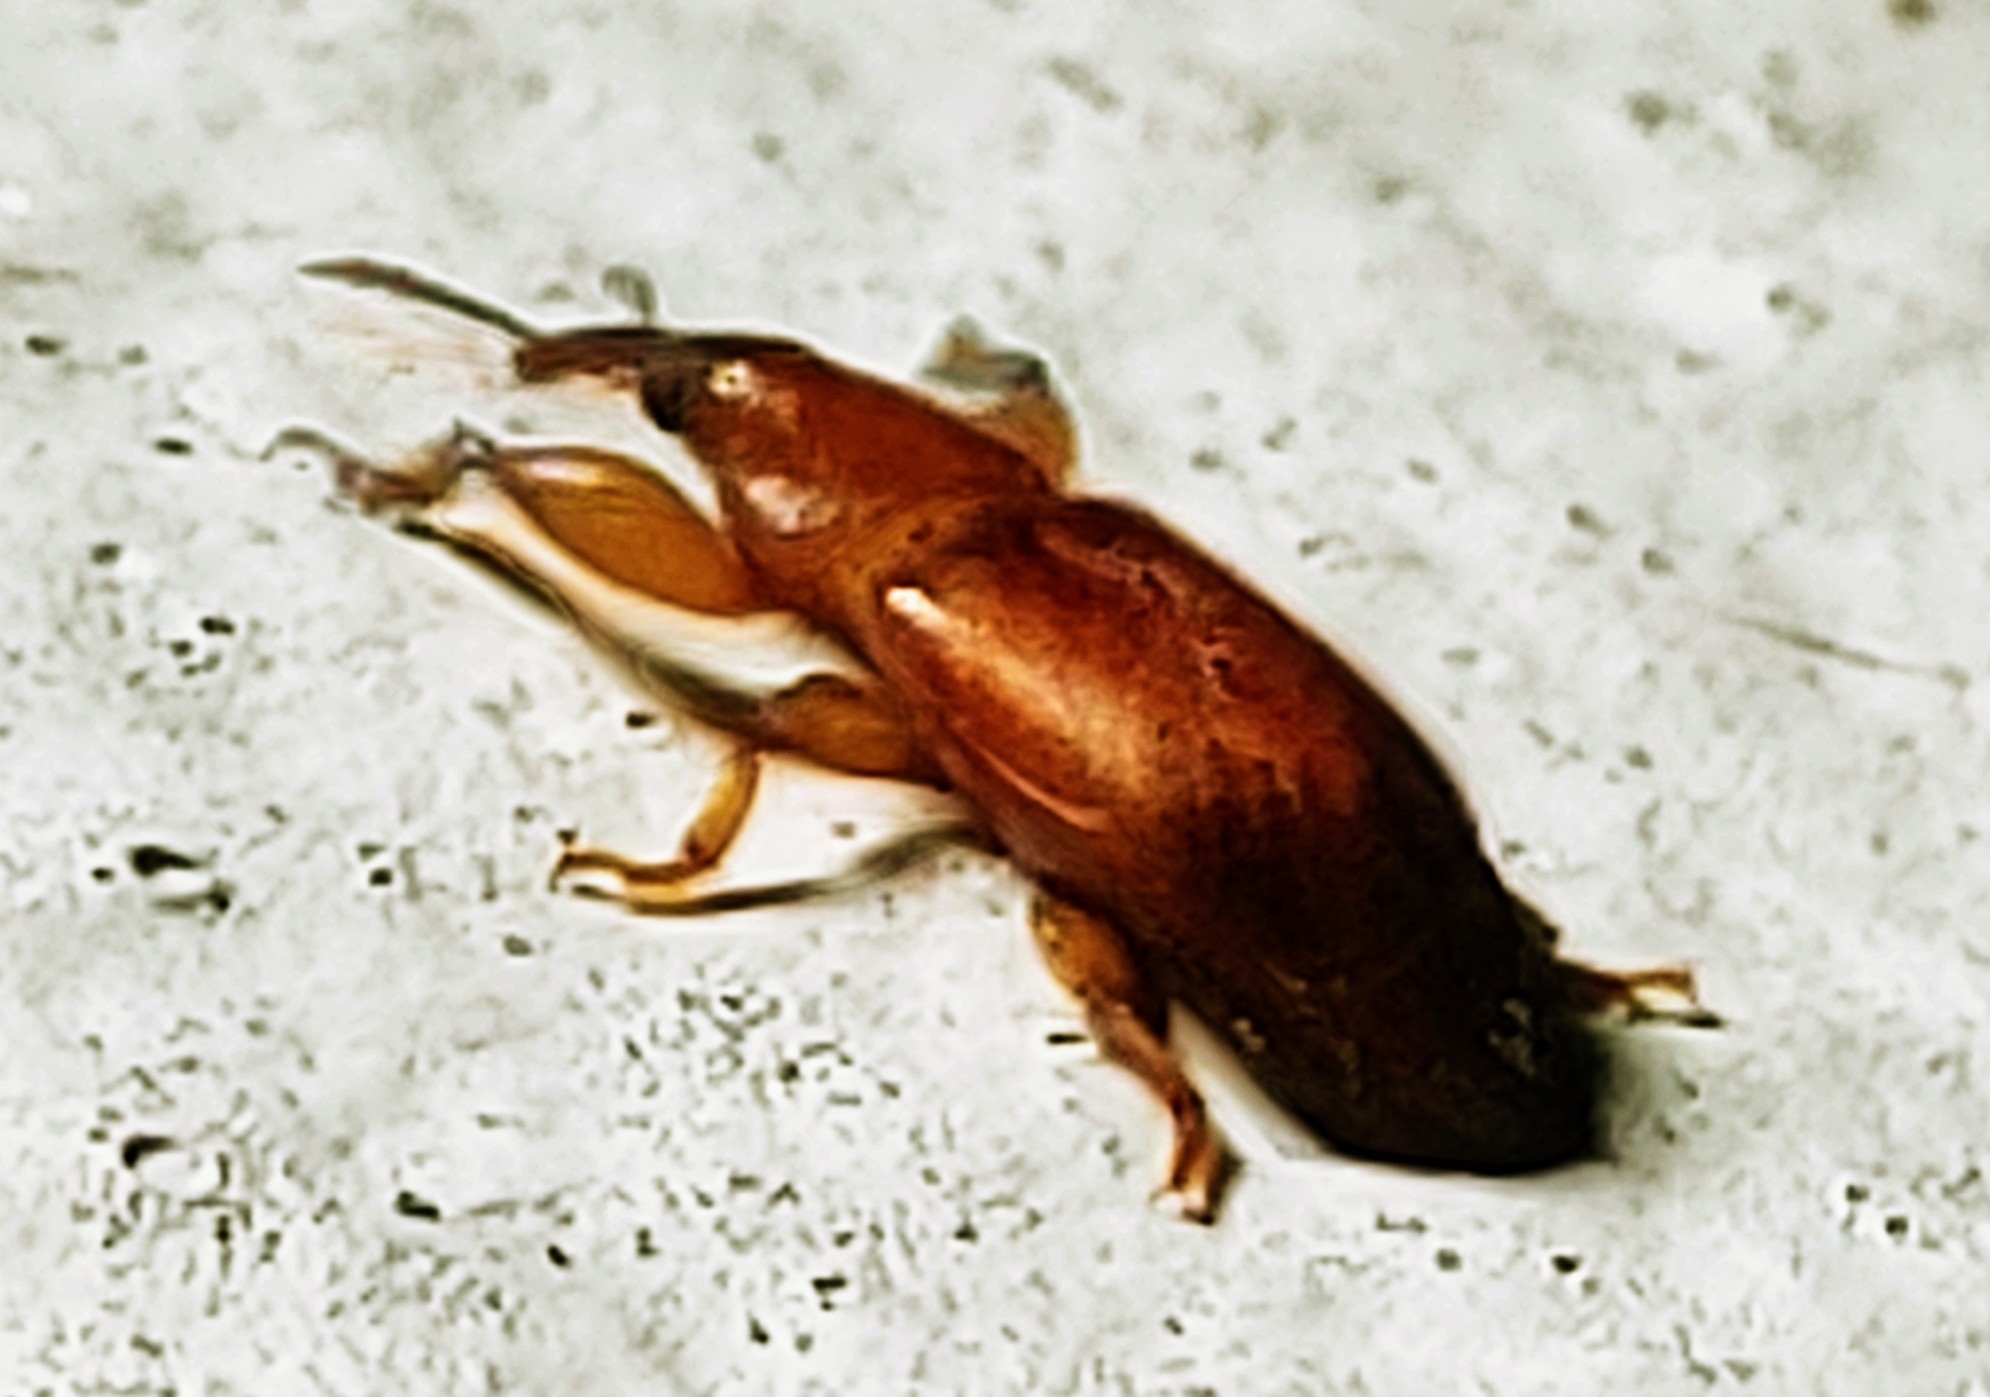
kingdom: Animalia
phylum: Arthropoda
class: Insecta
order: Coleoptera
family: Belidae
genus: Rhopalotria
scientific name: Rhopalotria furfuracea
